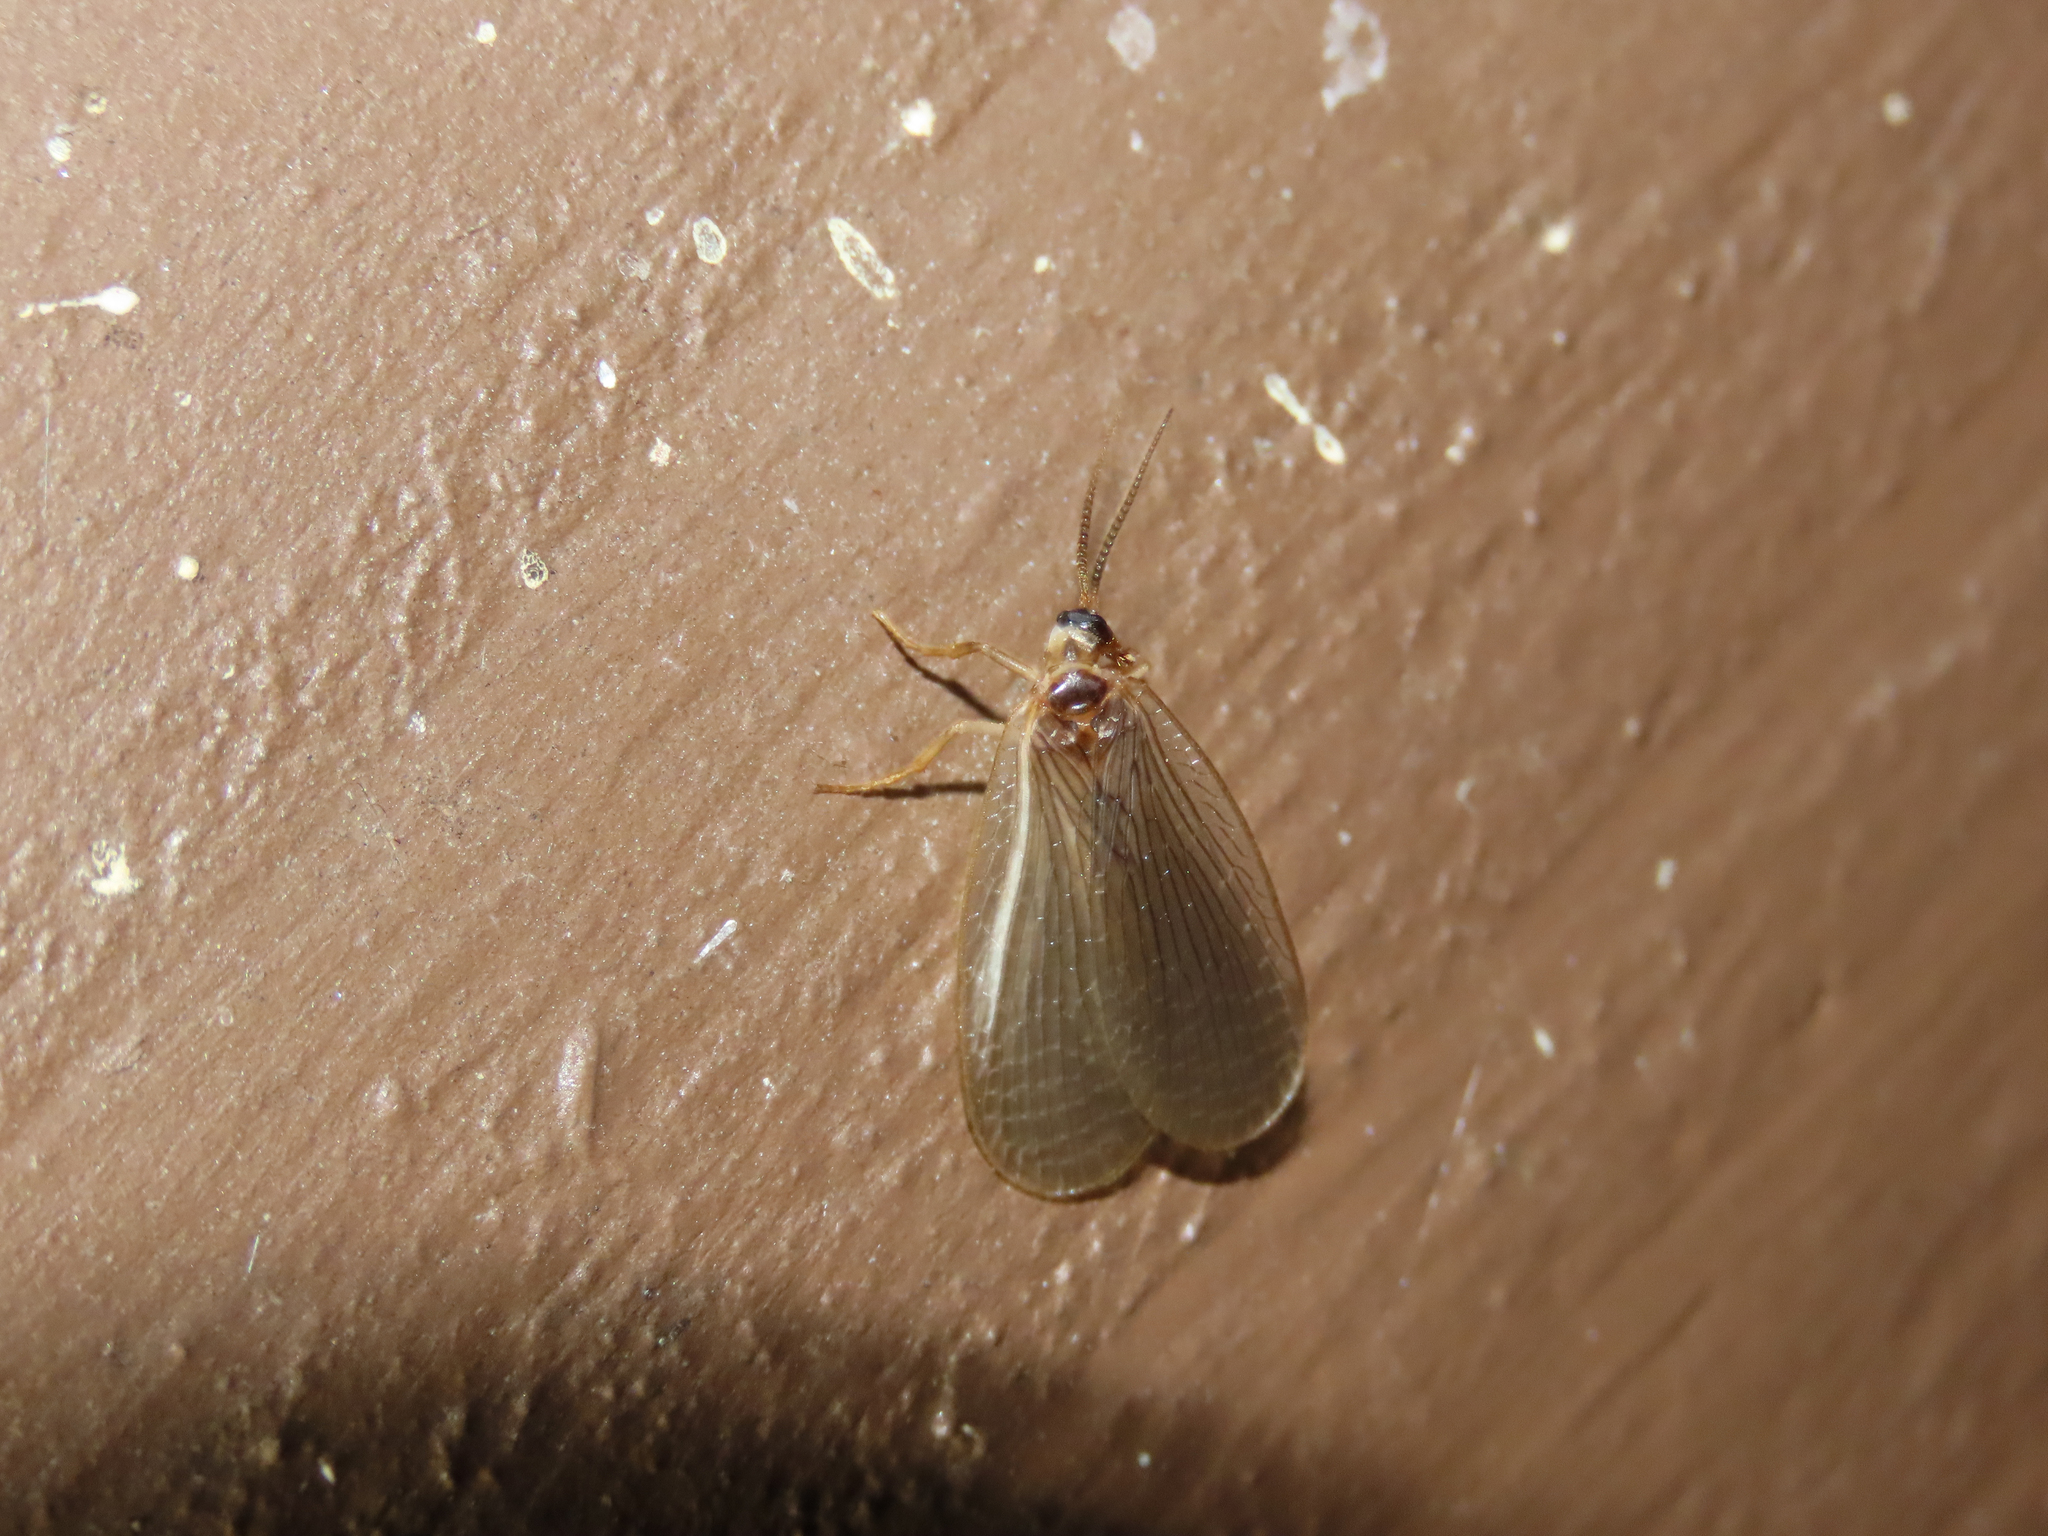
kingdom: Animalia
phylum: Arthropoda
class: Insecta
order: Mecoptera
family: Meropeidae
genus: Merope
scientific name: Merope tuber
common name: Forcepfly
